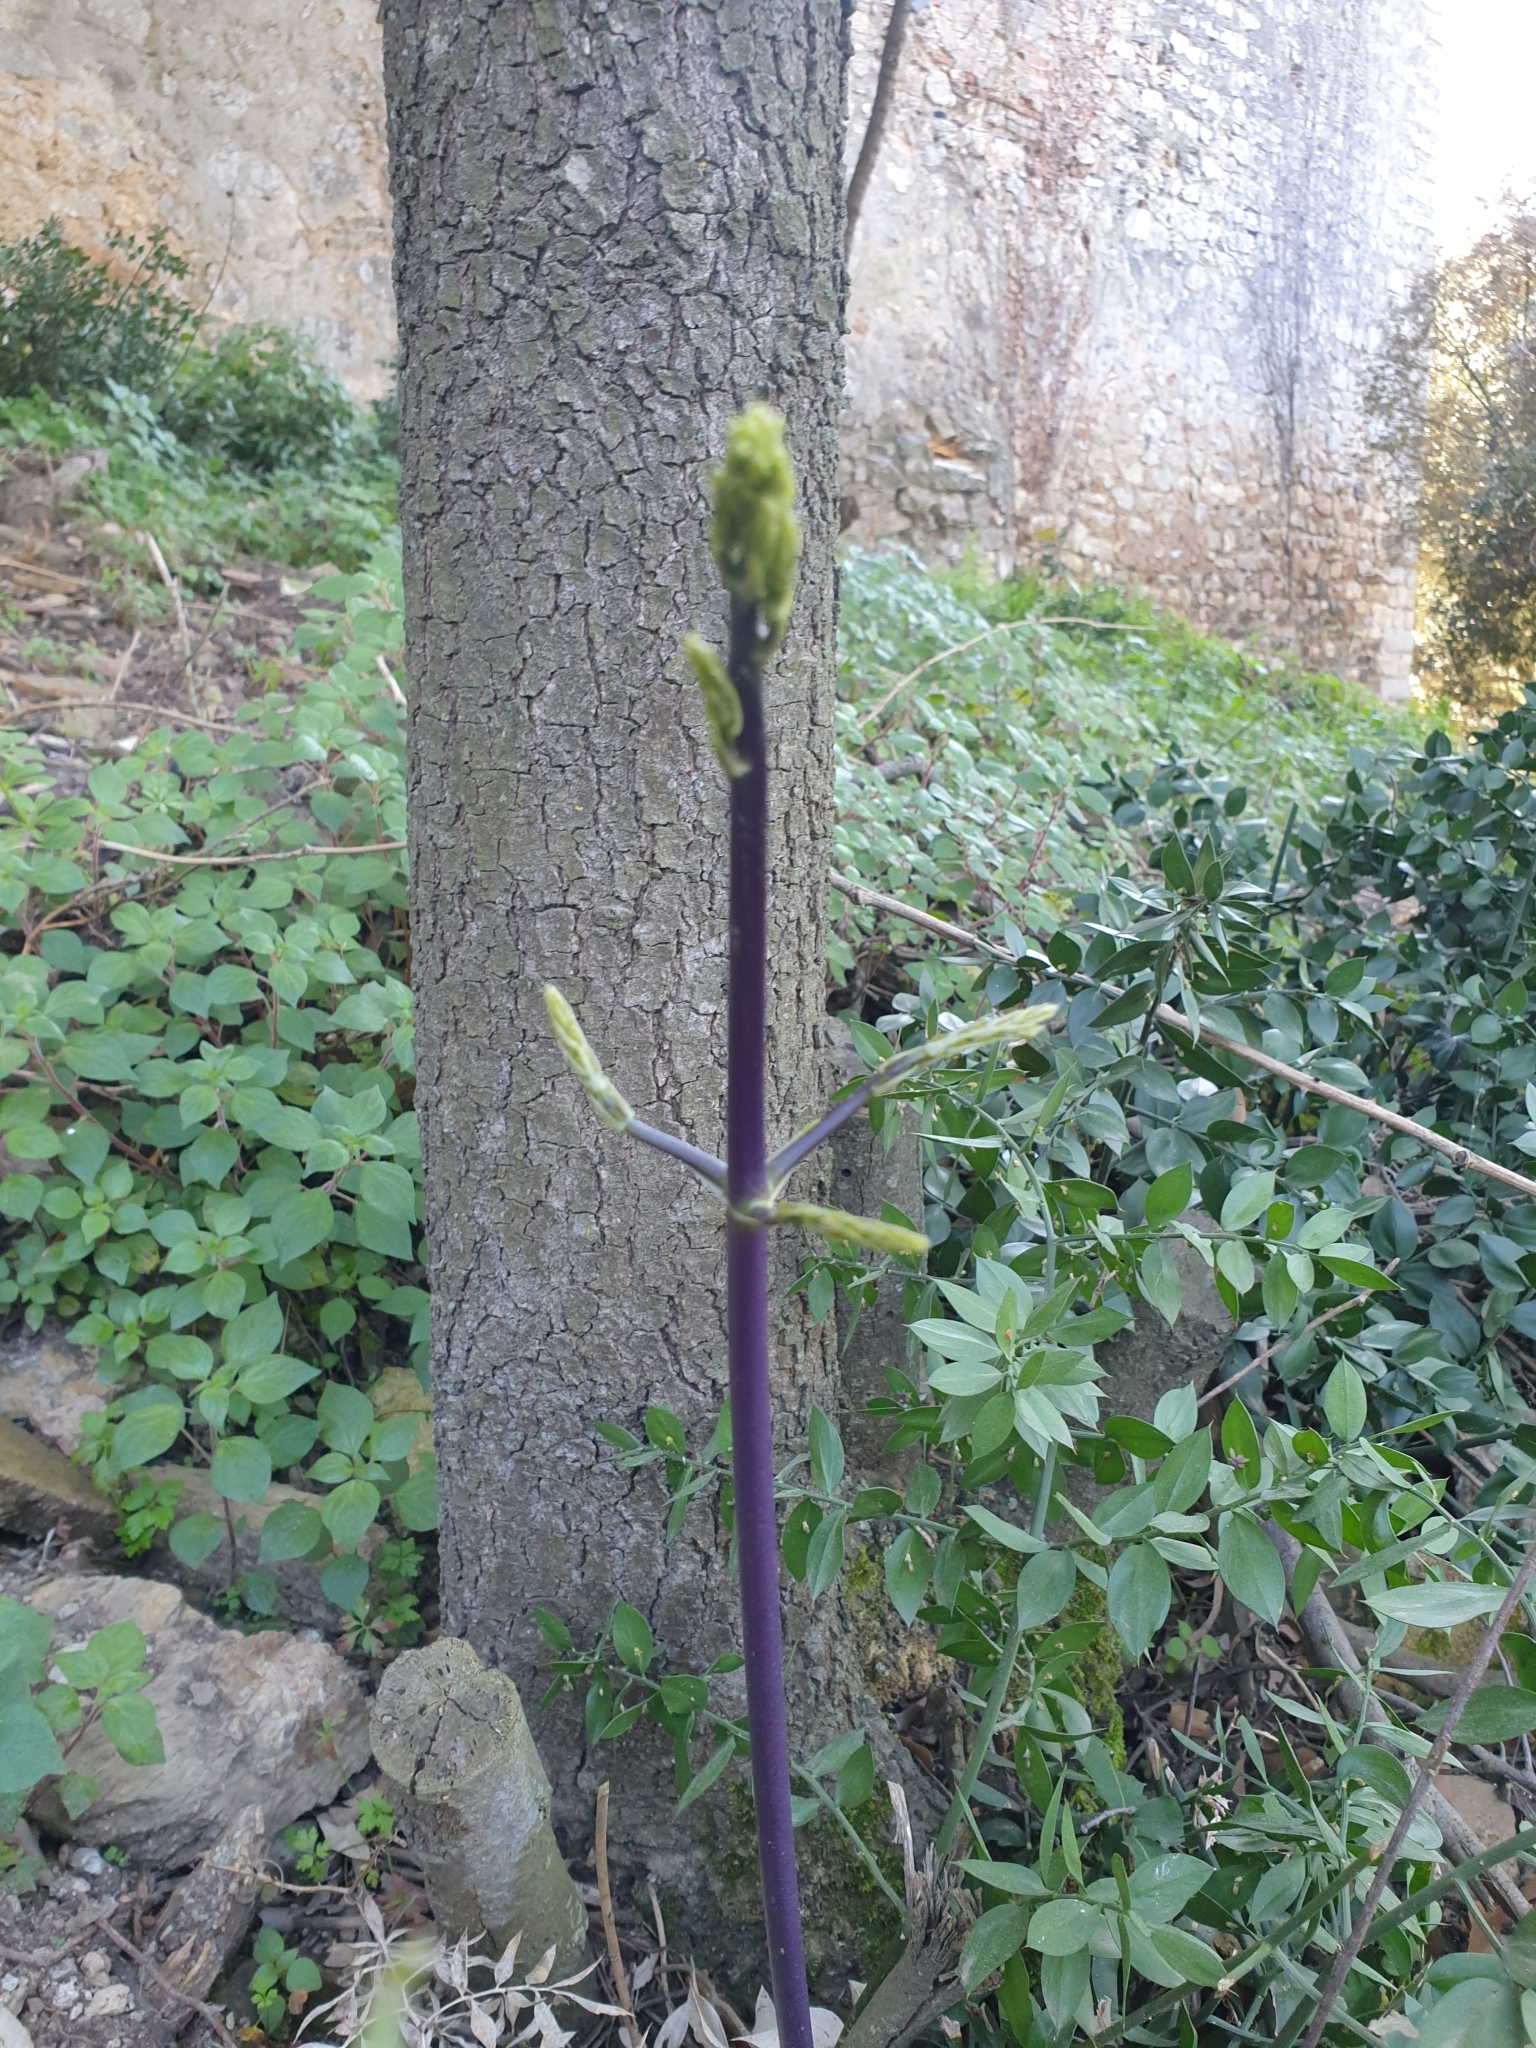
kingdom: Plantae
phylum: Tracheophyta
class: Liliopsida
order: Asparagales
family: Asparagaceae
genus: Ruscus
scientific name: Ruscus aculeatus
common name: Butcher's-broom
